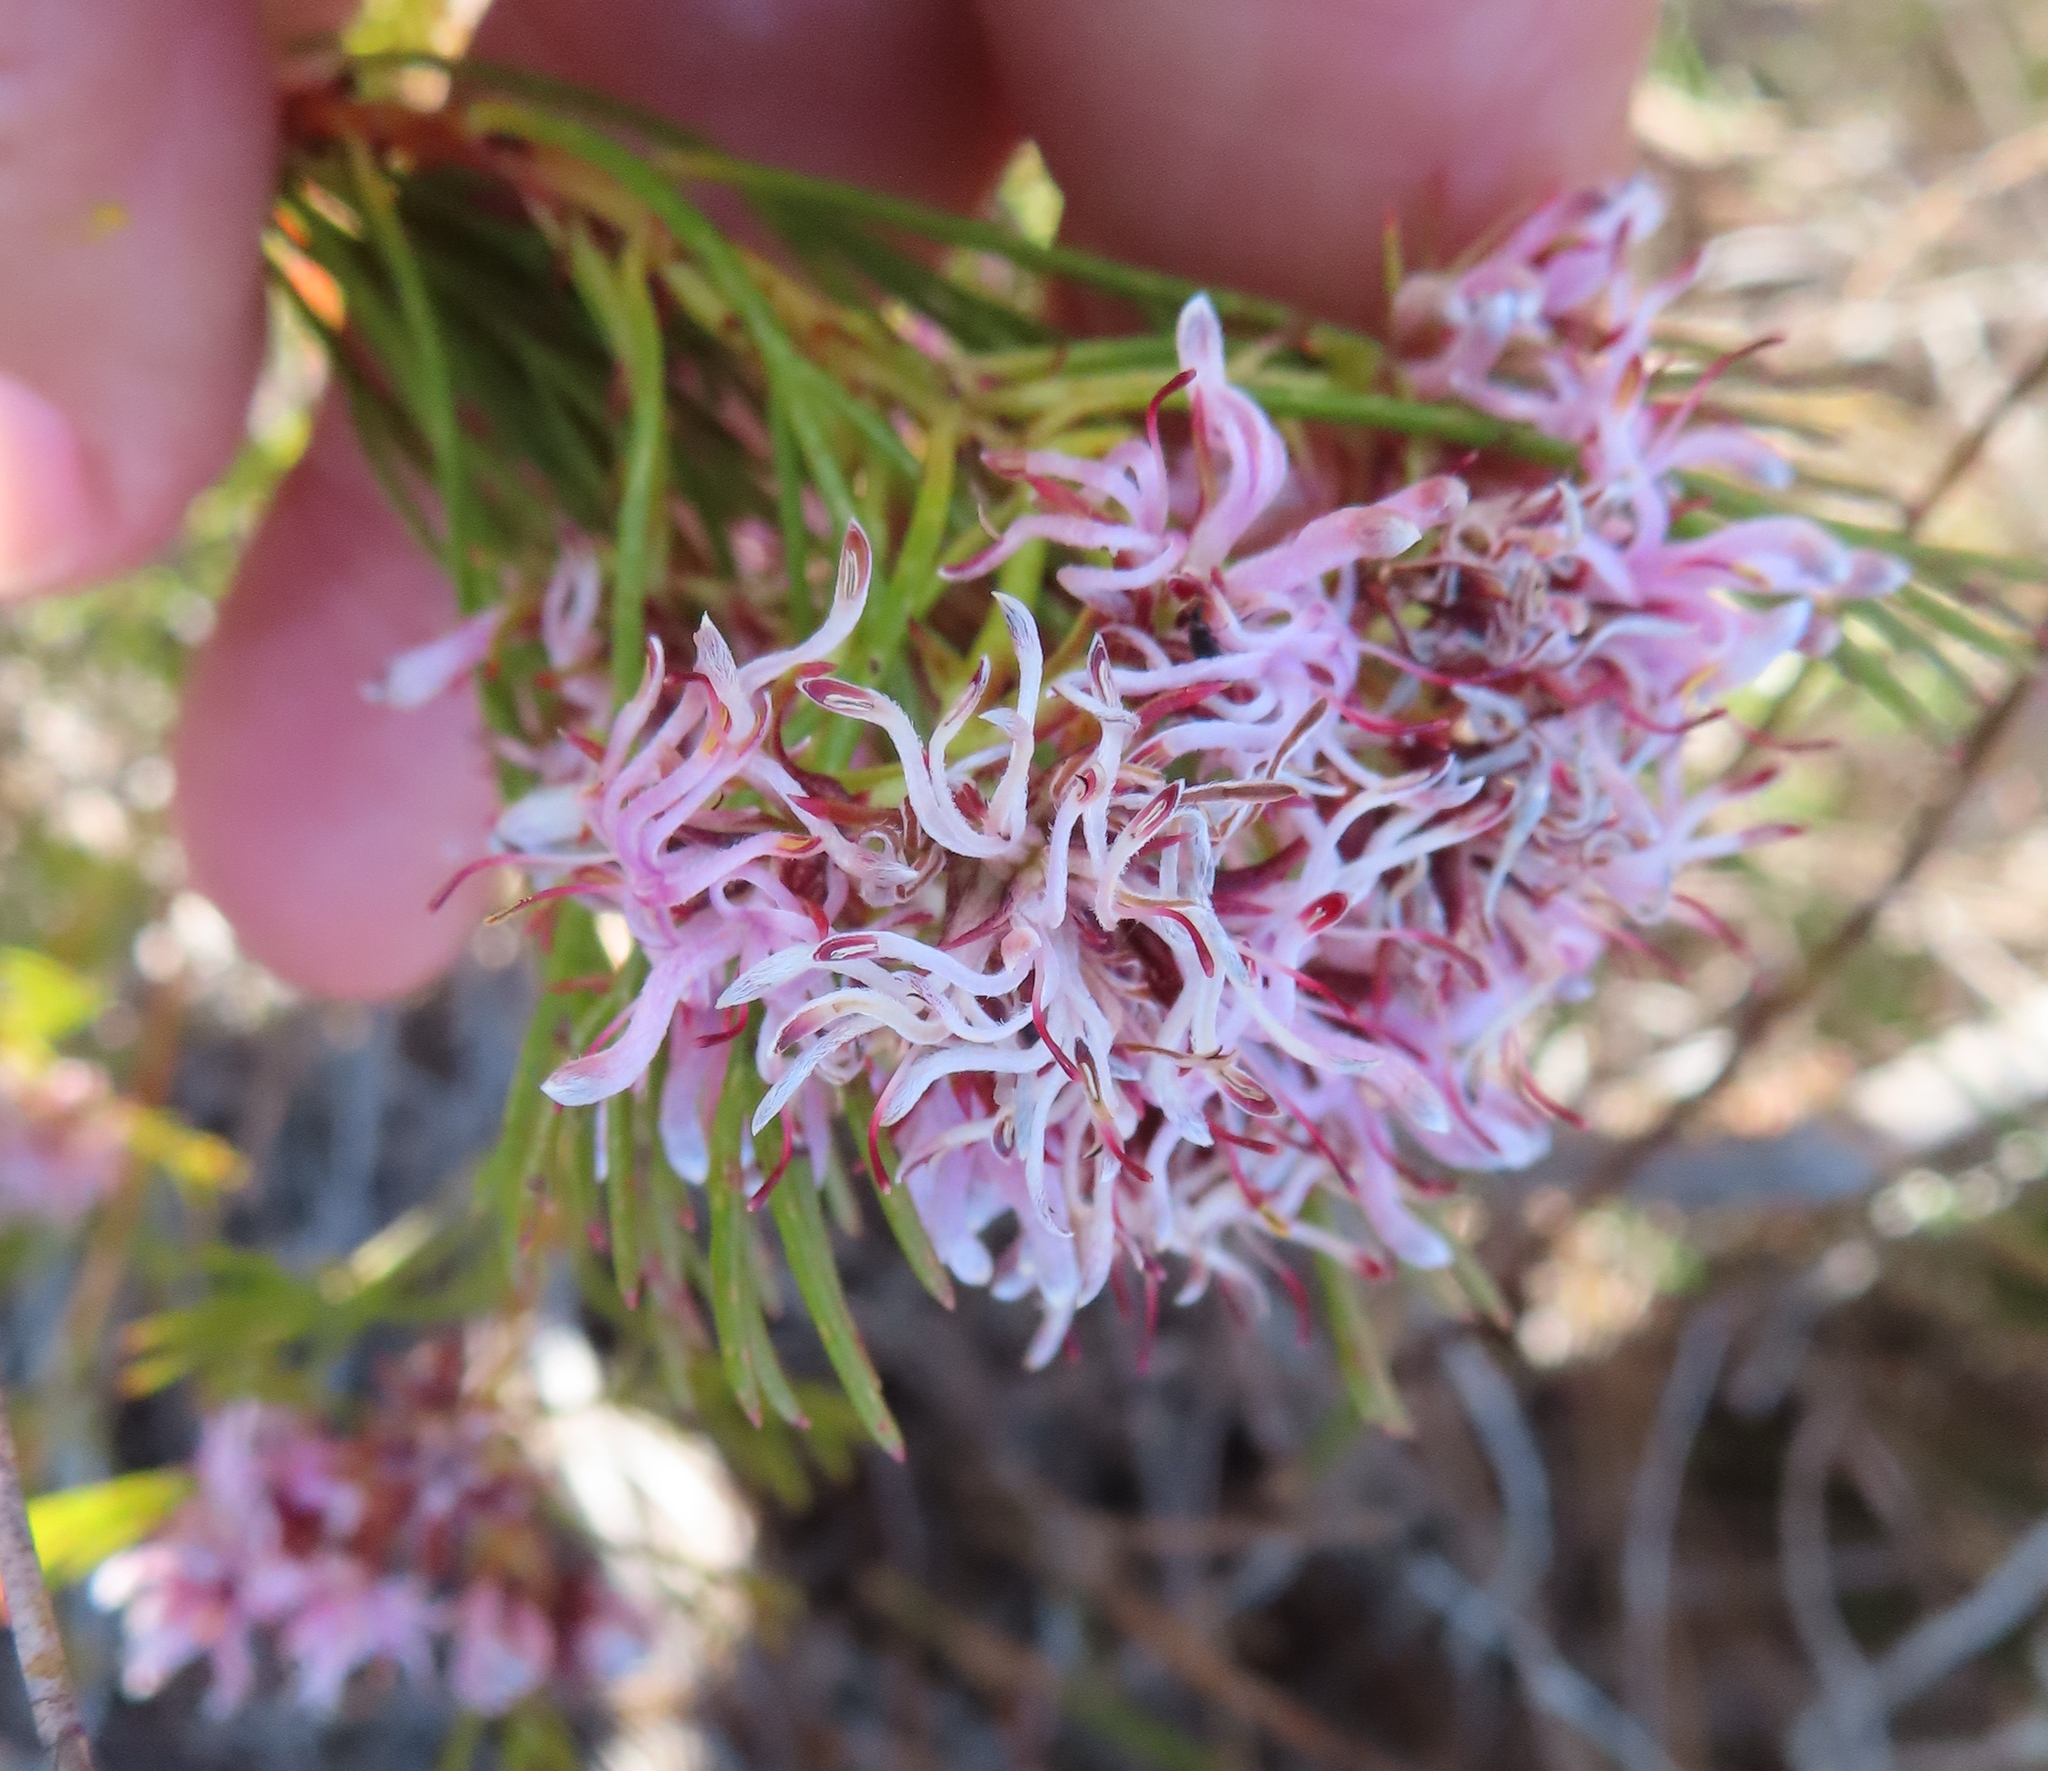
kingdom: Plantae
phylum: Tracheophyta
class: Magnoliopsida
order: Proteales
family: Proteaceae
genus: Serruria
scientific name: Serruria bolusii
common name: Agulhas spiderhead
